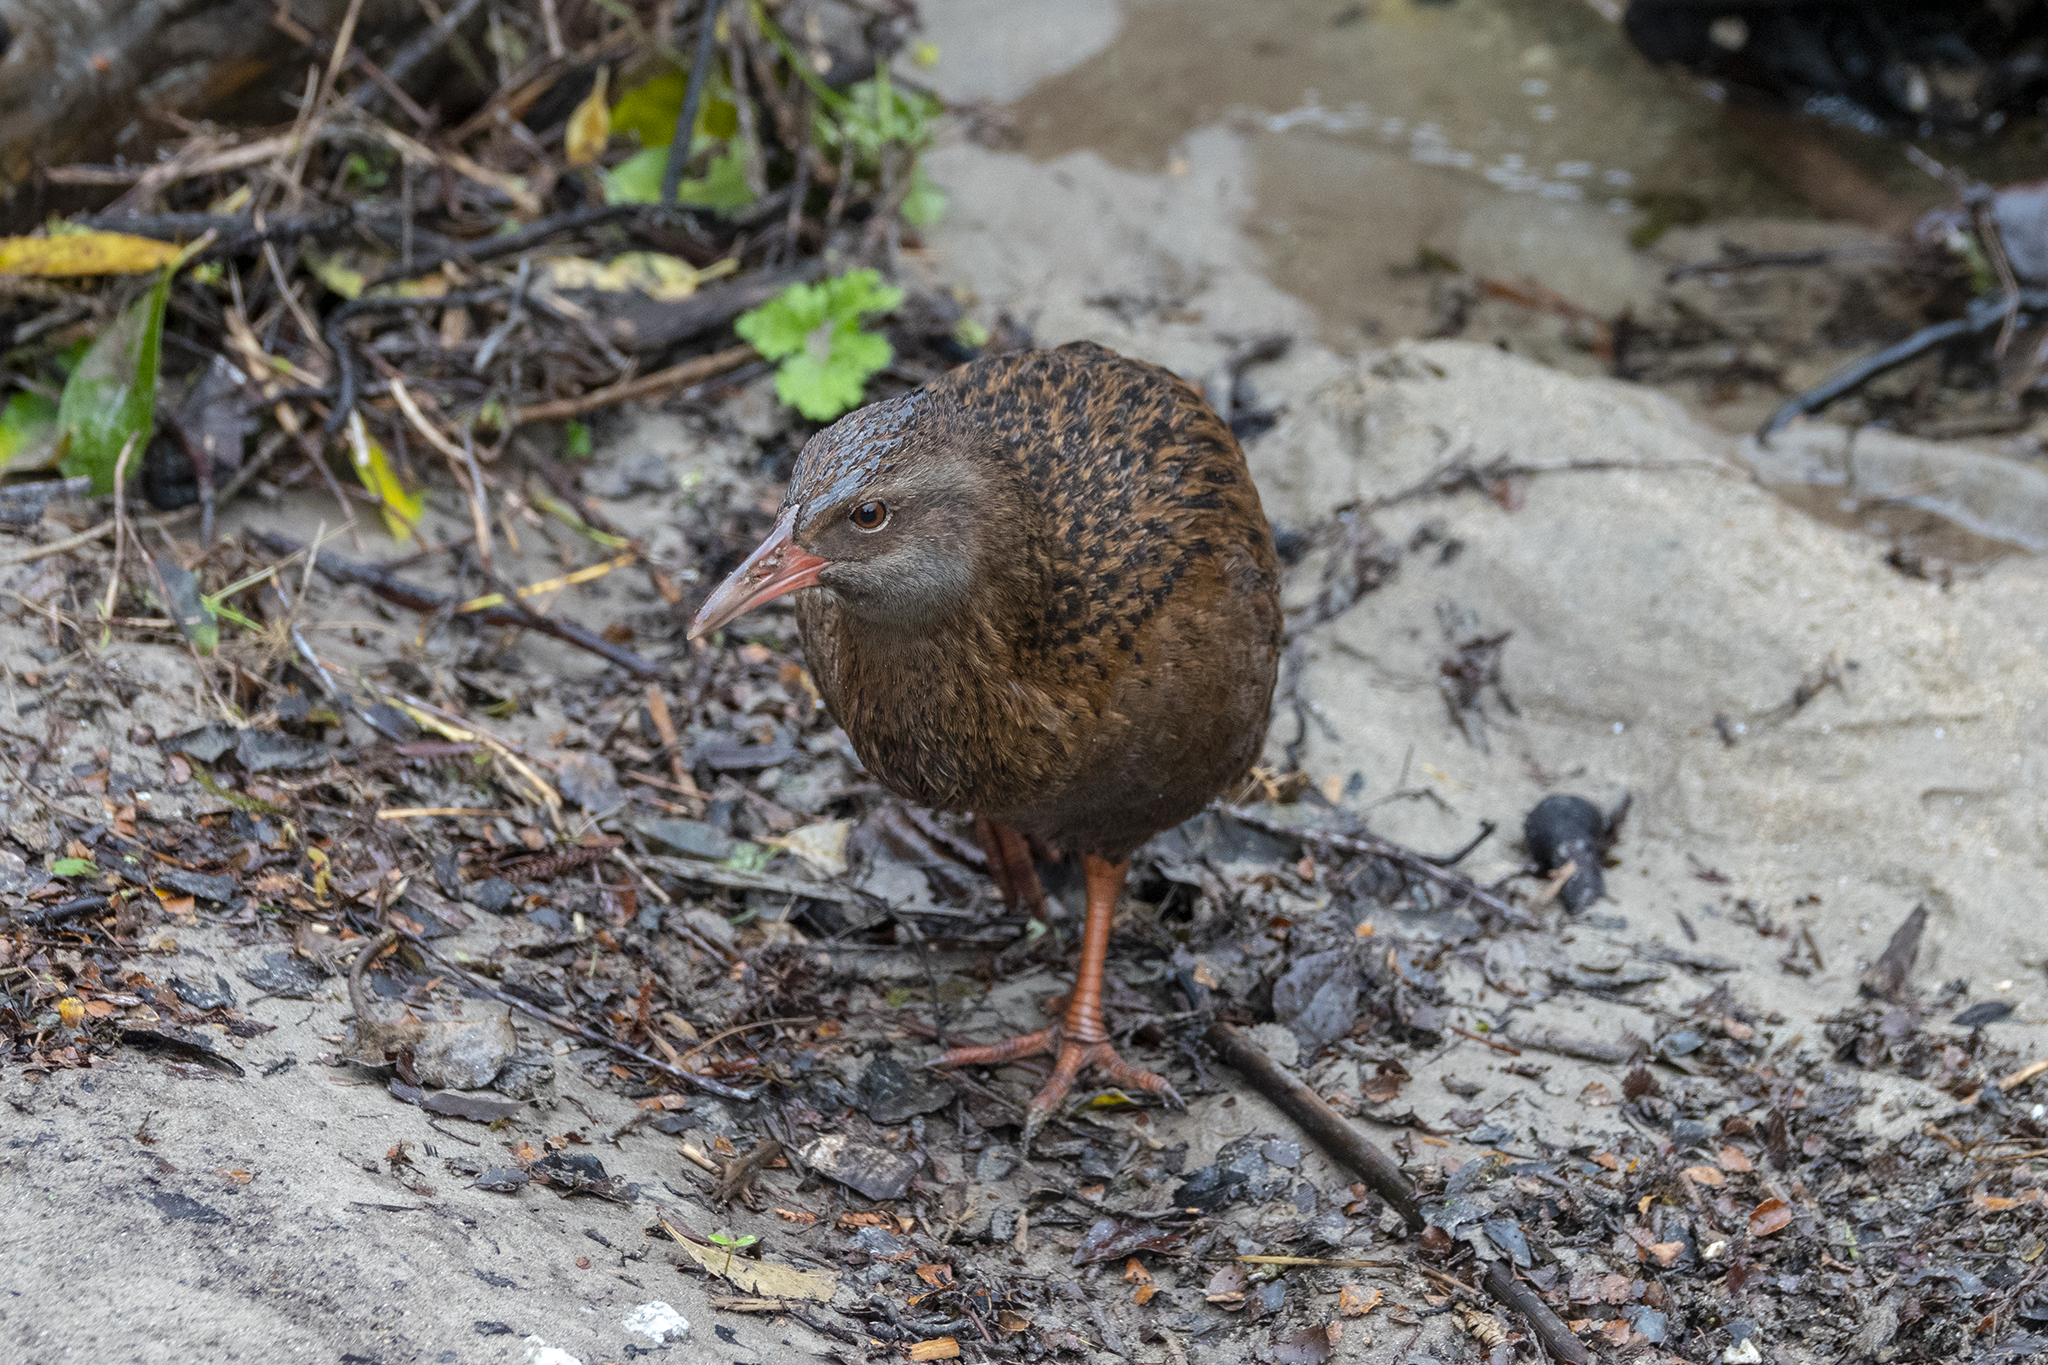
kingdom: Animalia
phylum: Chordata
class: Aves
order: Gruiformes
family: Rallidae
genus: Gallirallus
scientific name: Gallirallus australis
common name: Weka
